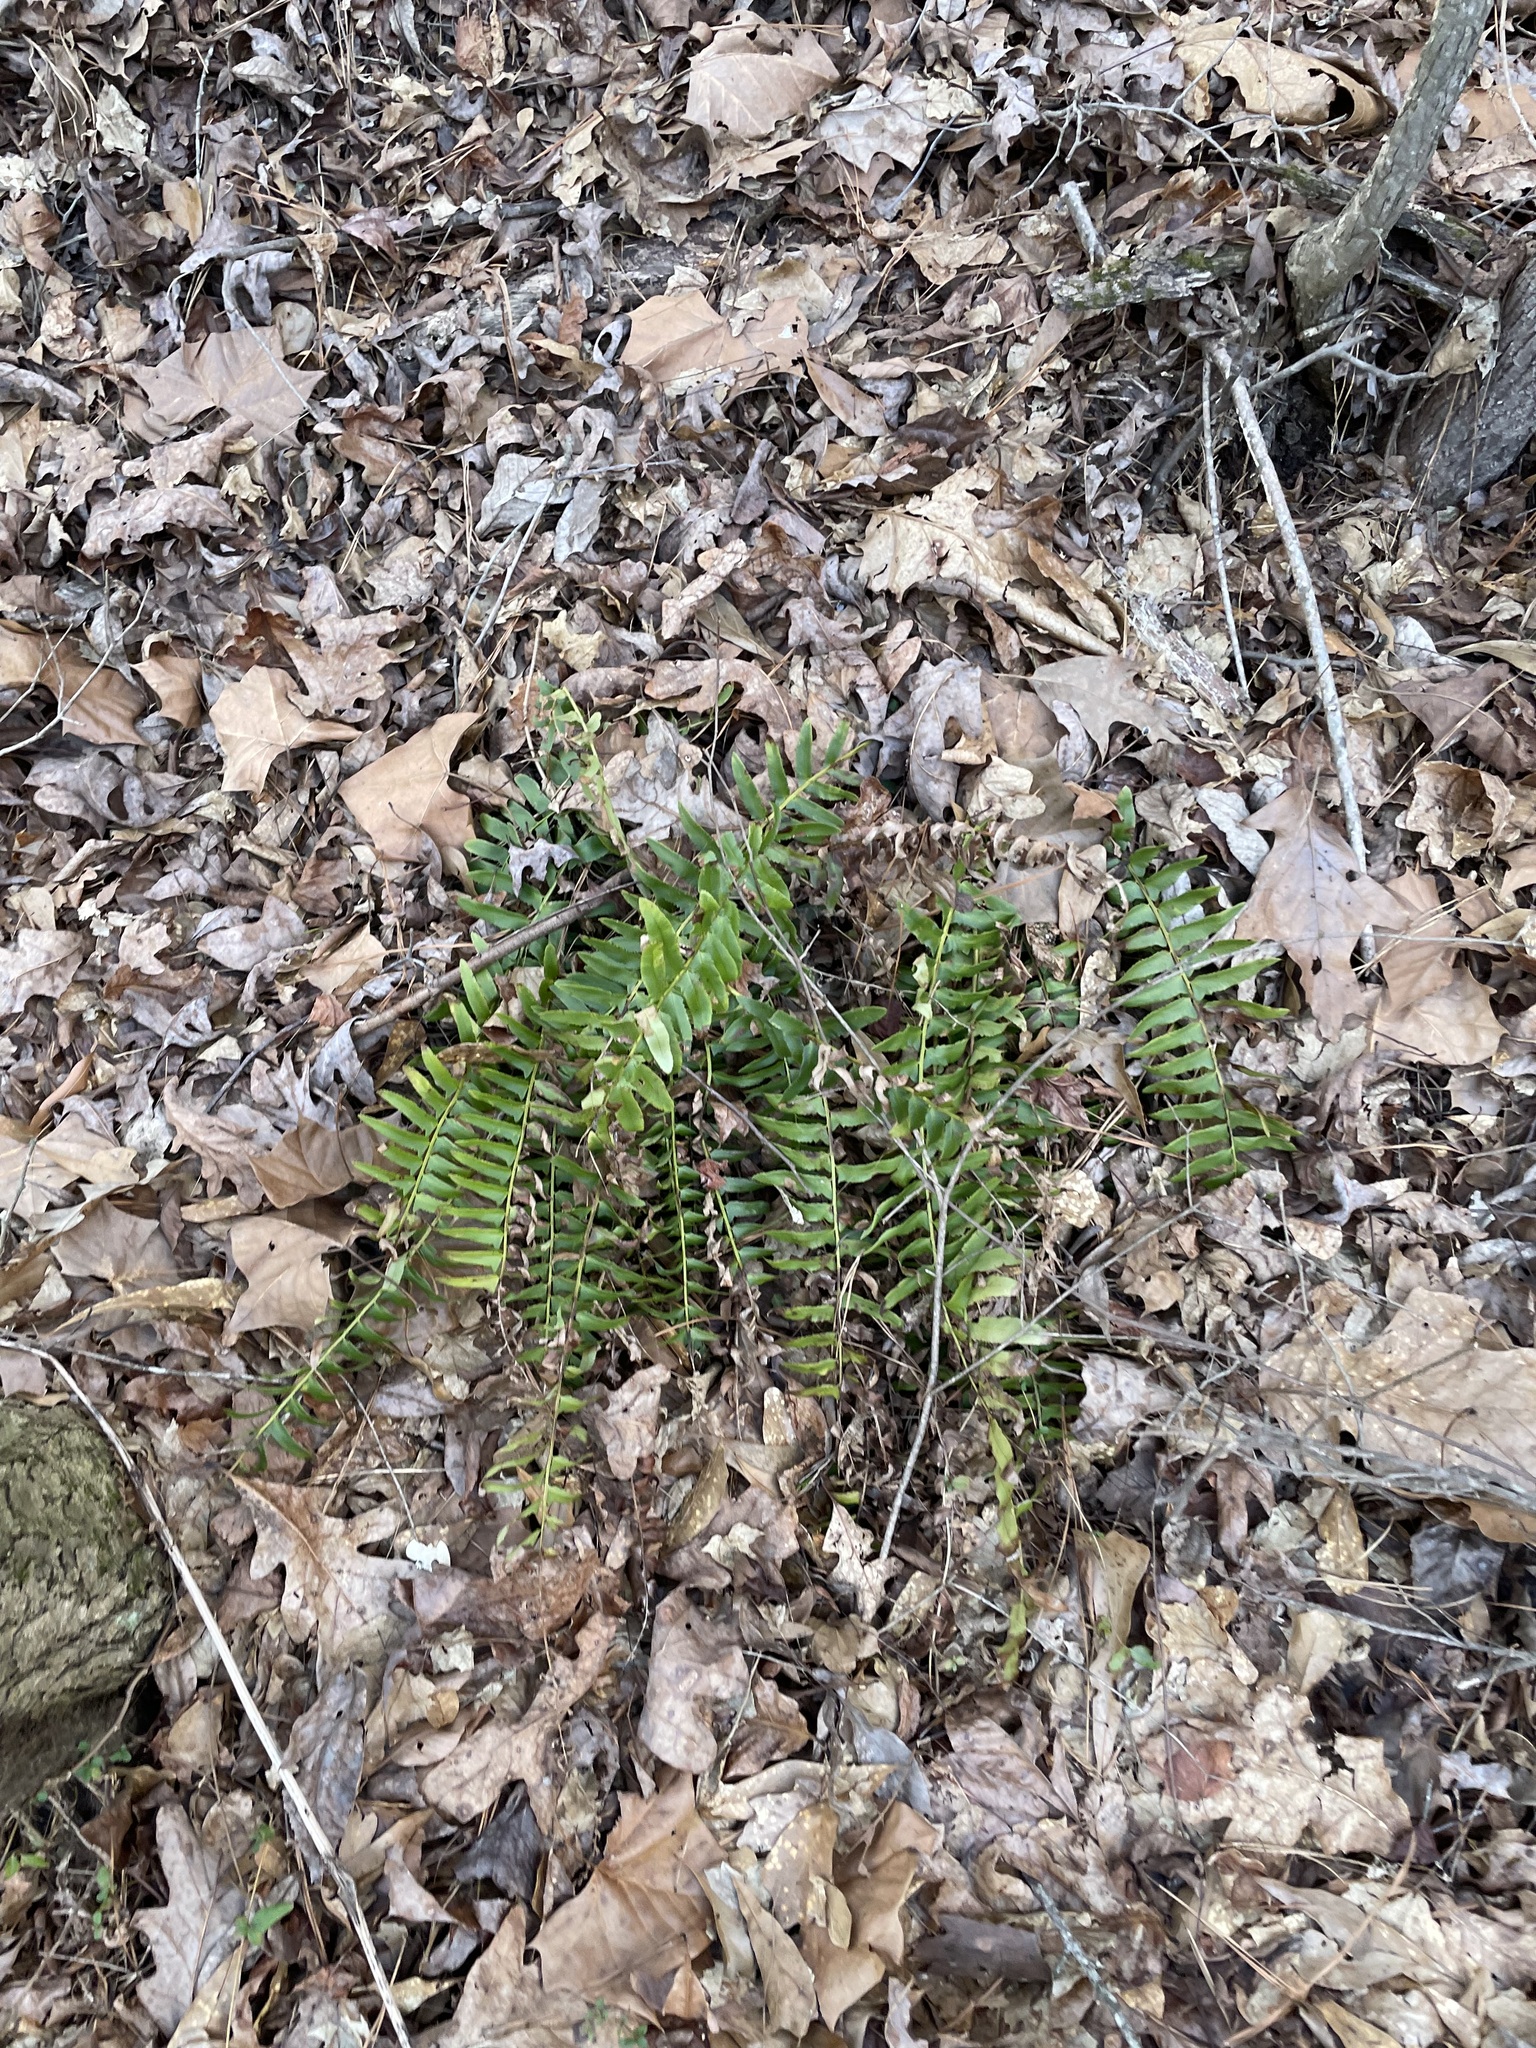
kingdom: Plantae
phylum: Tracheophyta
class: Polypodiopsida
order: Polypodiales
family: Dryopteridaceae
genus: Polystichum
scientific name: Polystichum acrostichoides
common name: Christmas fern
